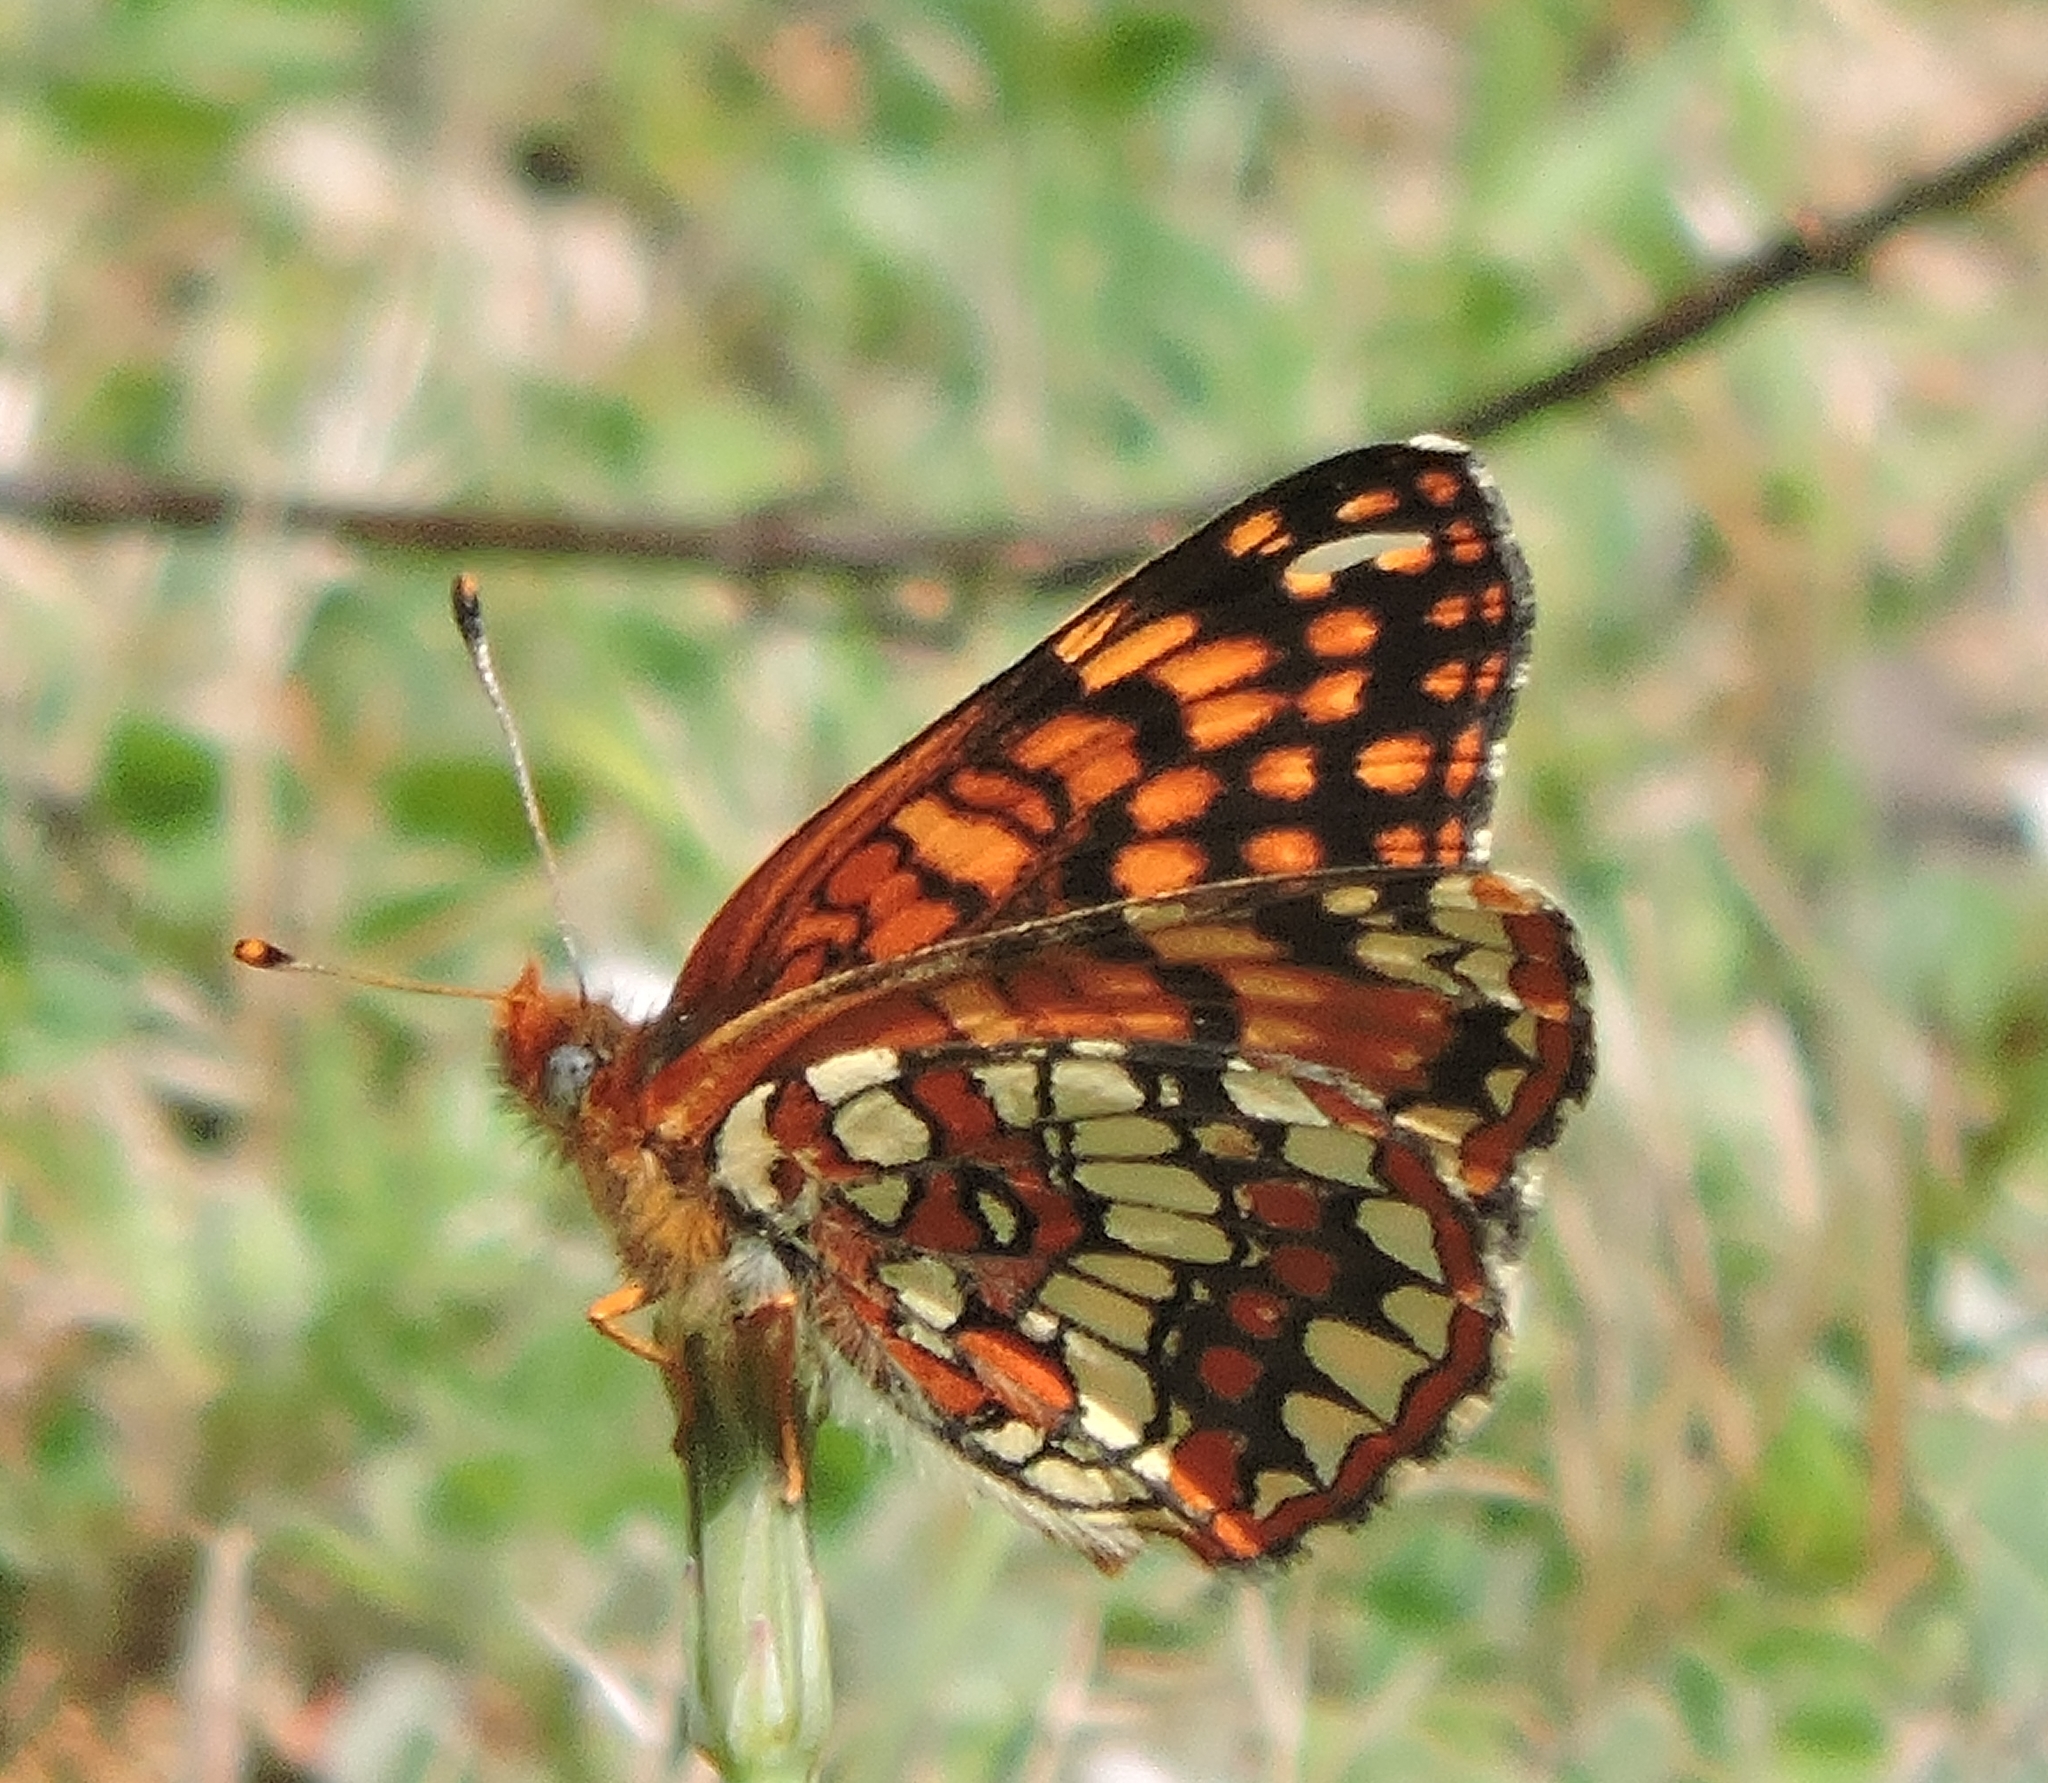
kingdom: Animalia
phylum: Arthropoda
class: Insecta
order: Lepidoptera
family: Nymphalidae
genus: Chlosyne
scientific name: Chlosyne palla
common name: Northern checkerspot
